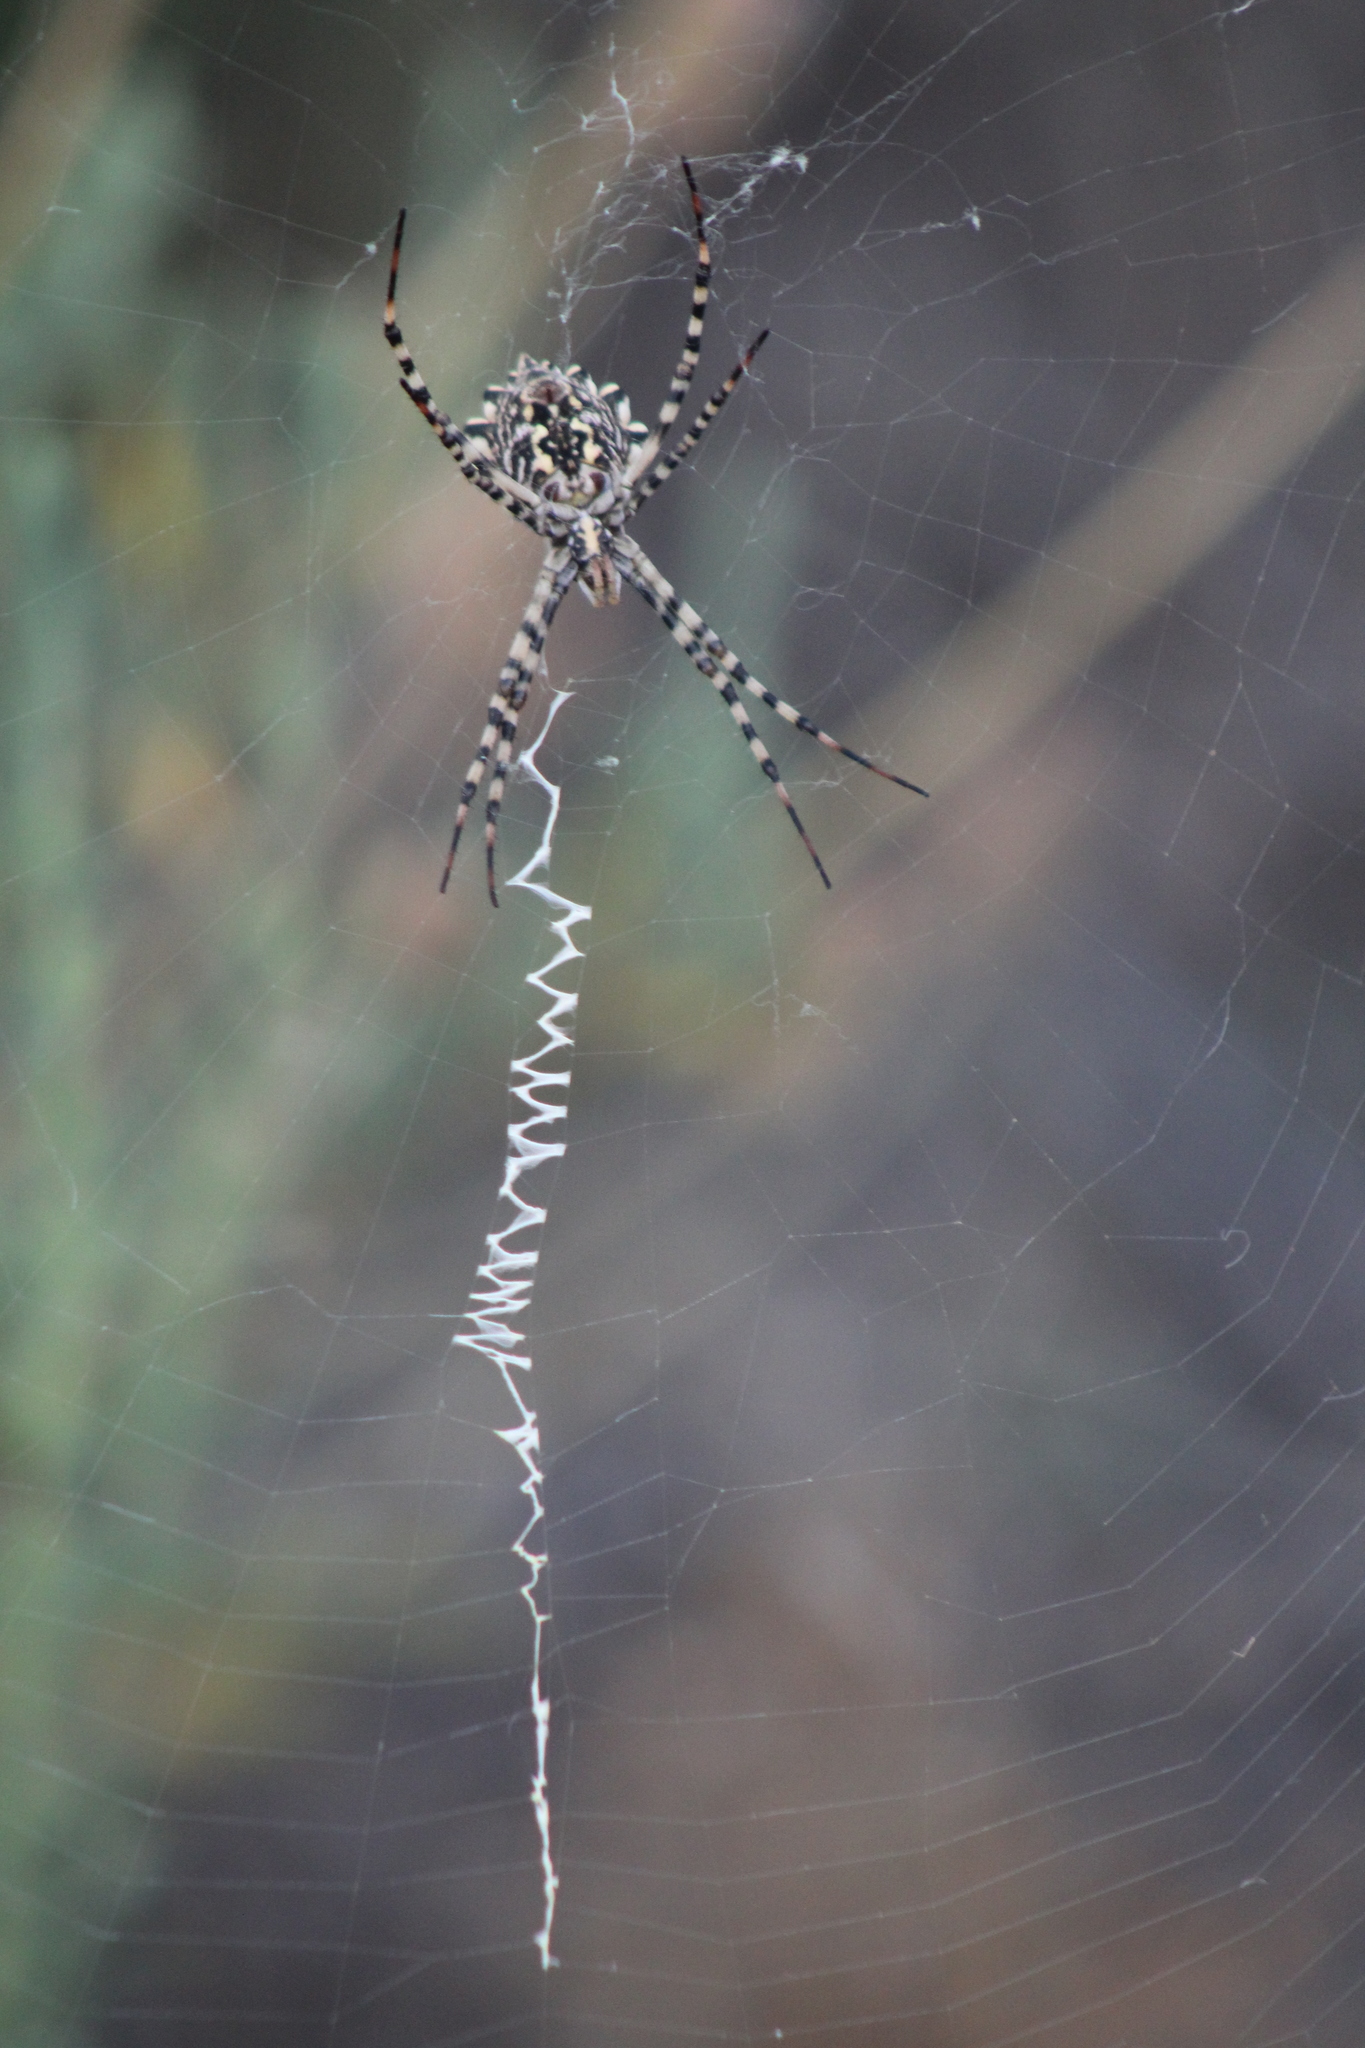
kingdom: Animalia
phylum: Arthropoda
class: Arachnida
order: Araneae
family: Araneidae
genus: Argiope
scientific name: Argiope lobata
